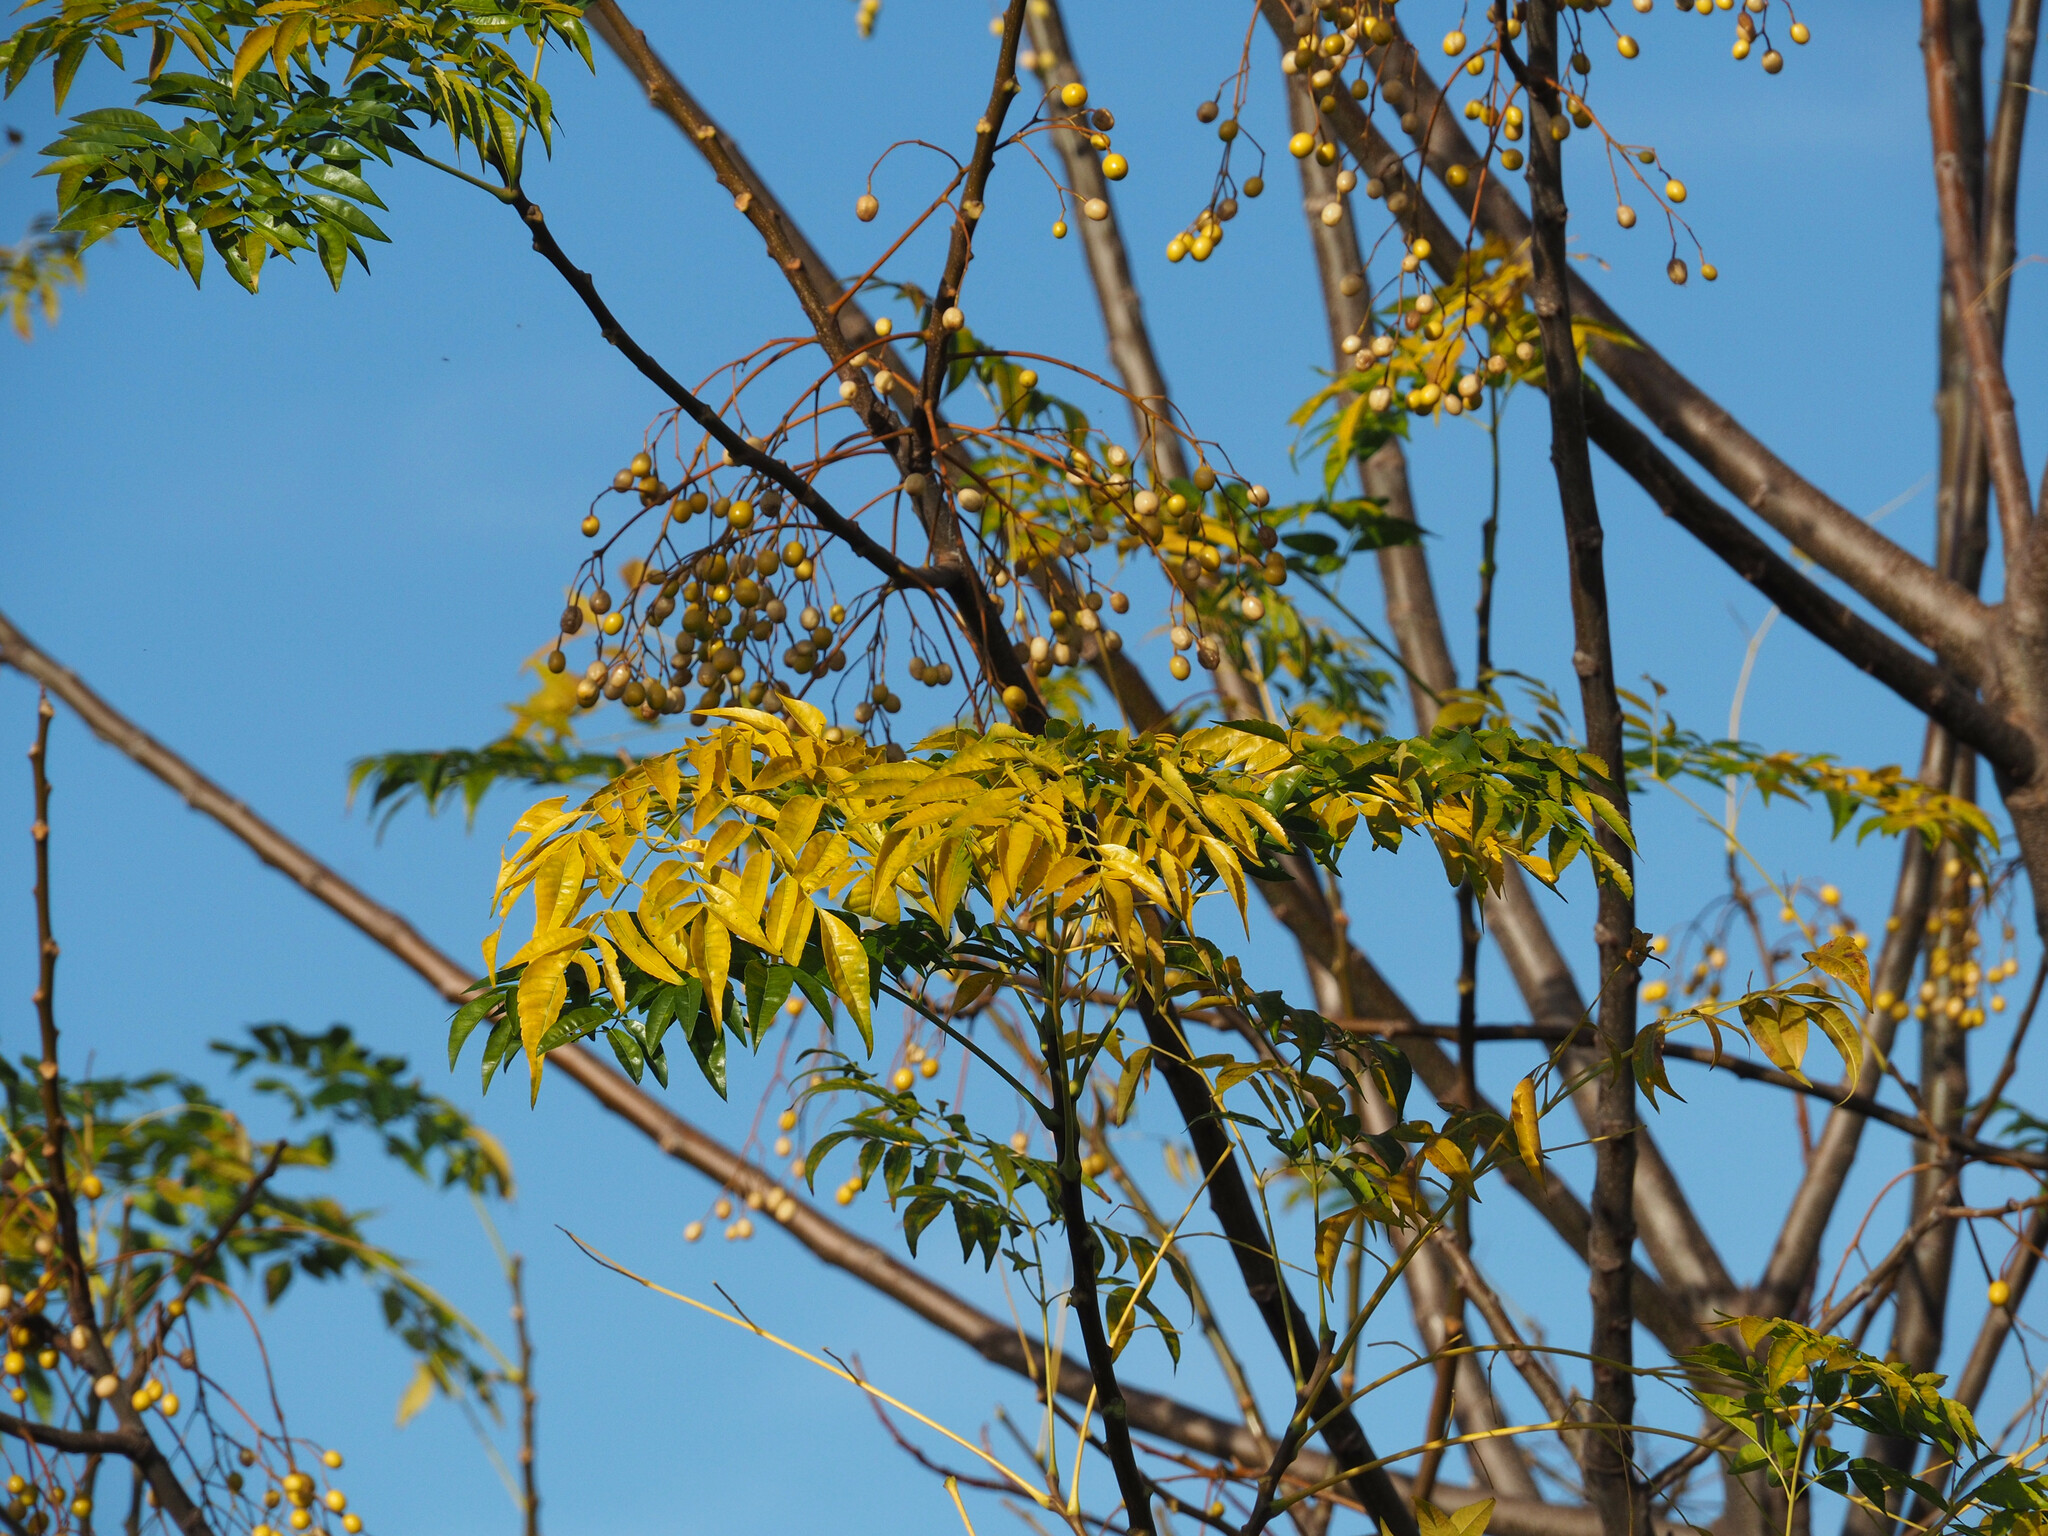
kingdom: Plantae
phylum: Tracheophyta
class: Magnoliopsida
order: Sapindales
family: Meliaceae
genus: Melia
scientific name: Melia azedarach
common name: Chinaberrytree
